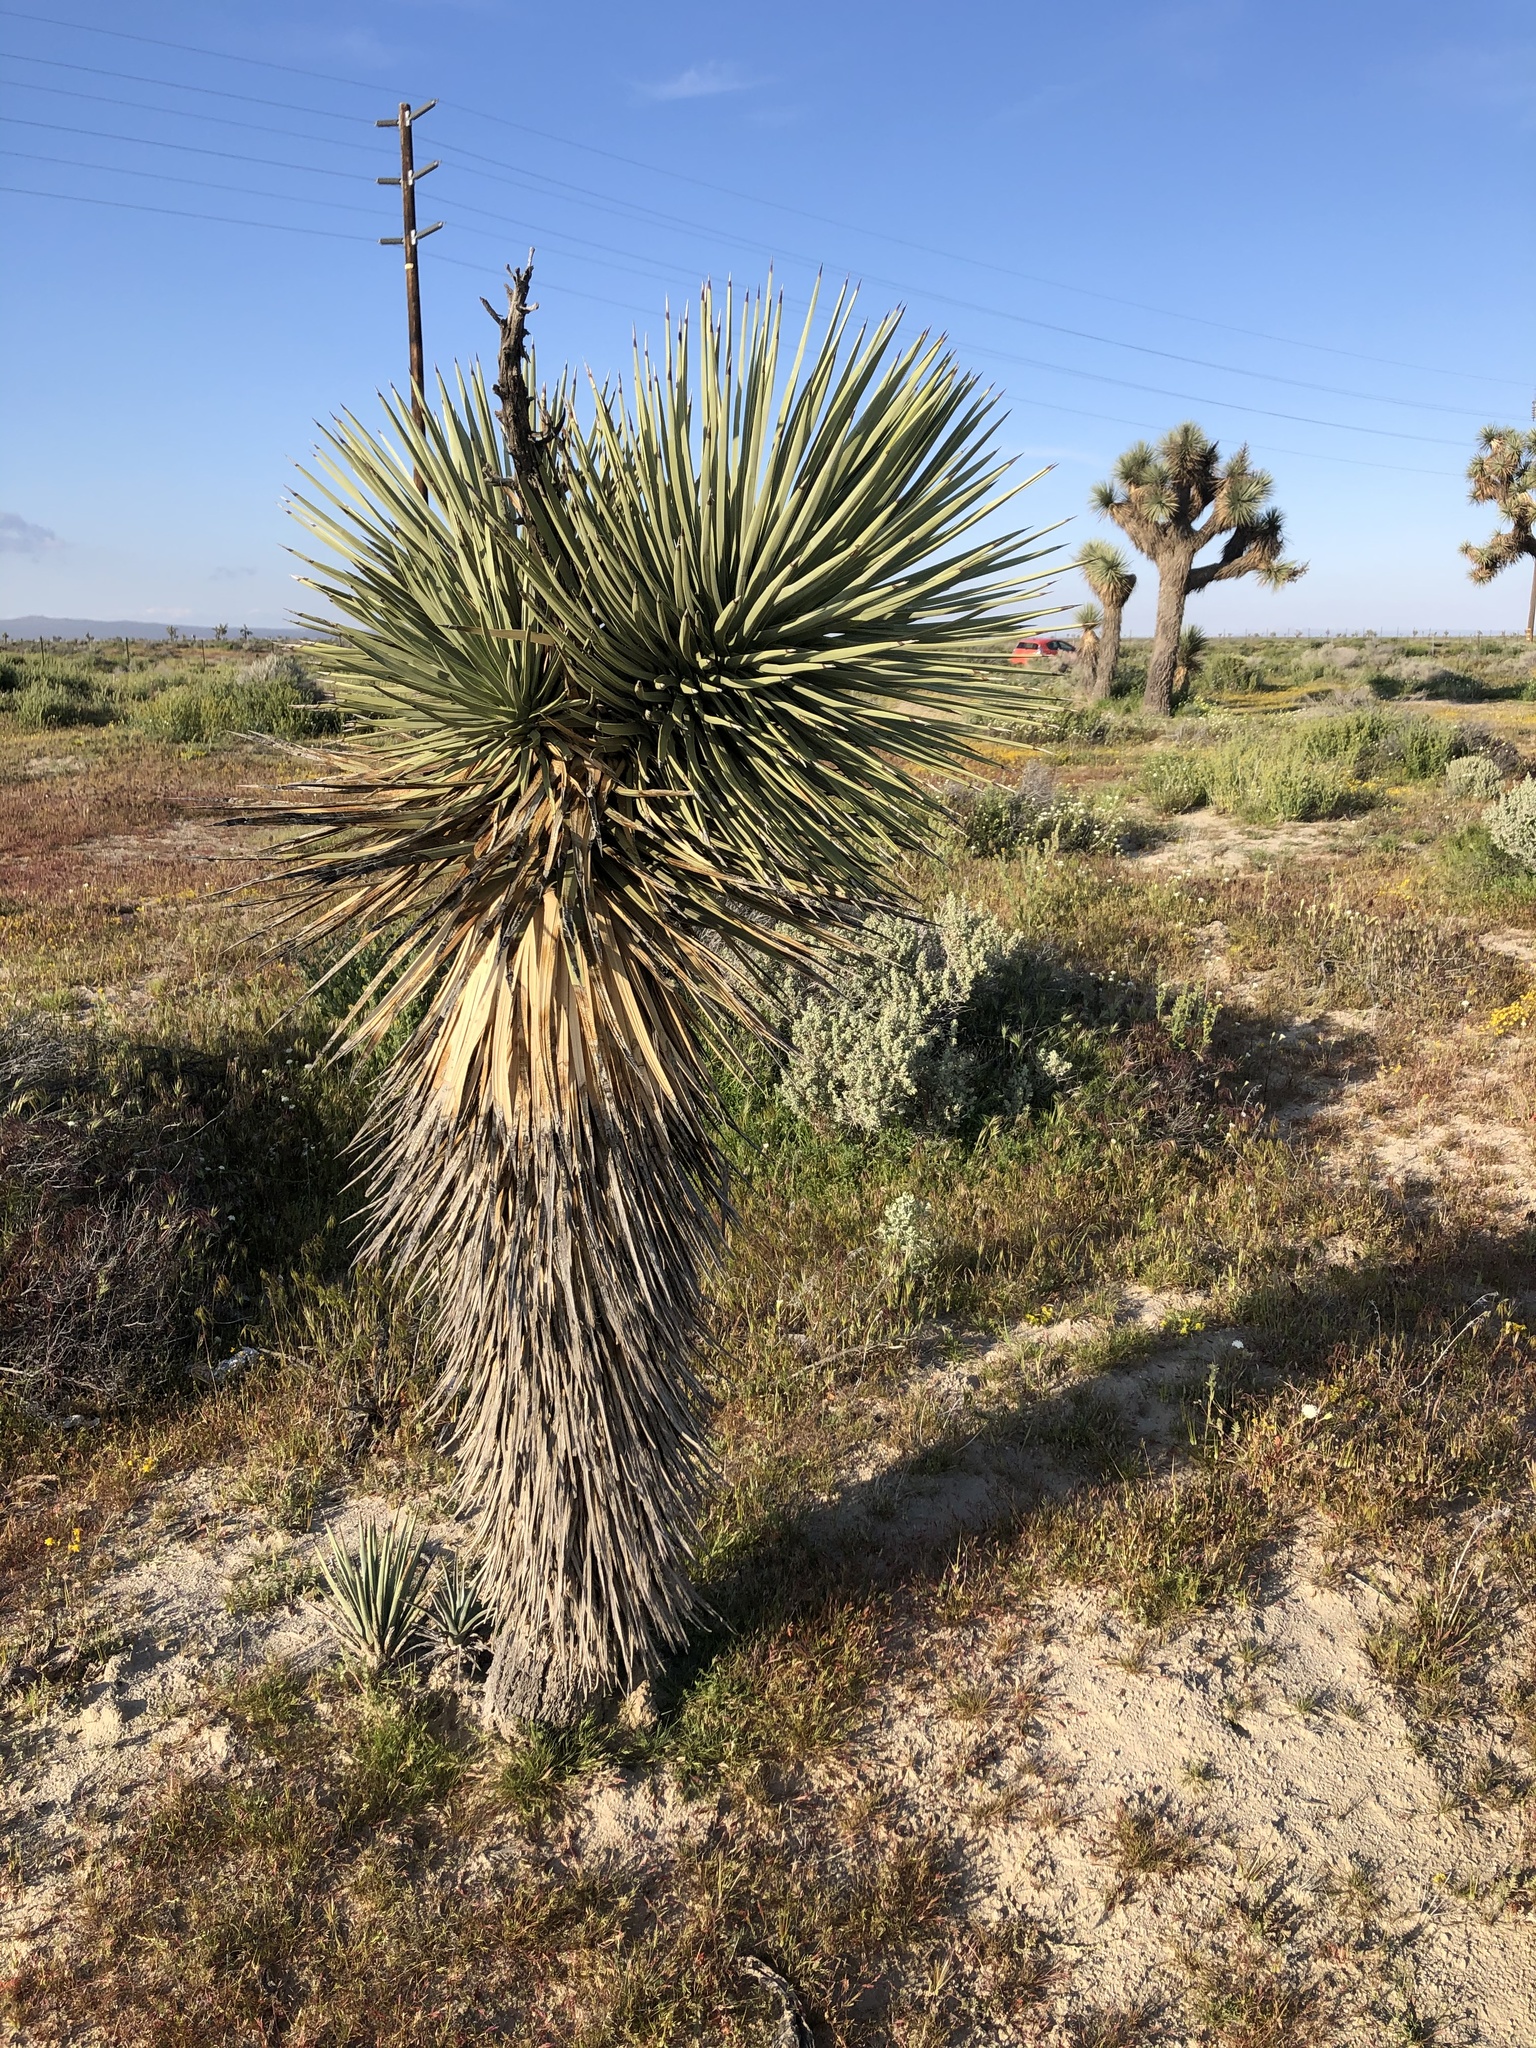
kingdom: Plantae
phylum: Tracheophyta
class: Liliopsida
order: Asparagales
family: Asparagaceae
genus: Yucca
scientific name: Yucca brevifolia
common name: Joshua tree
